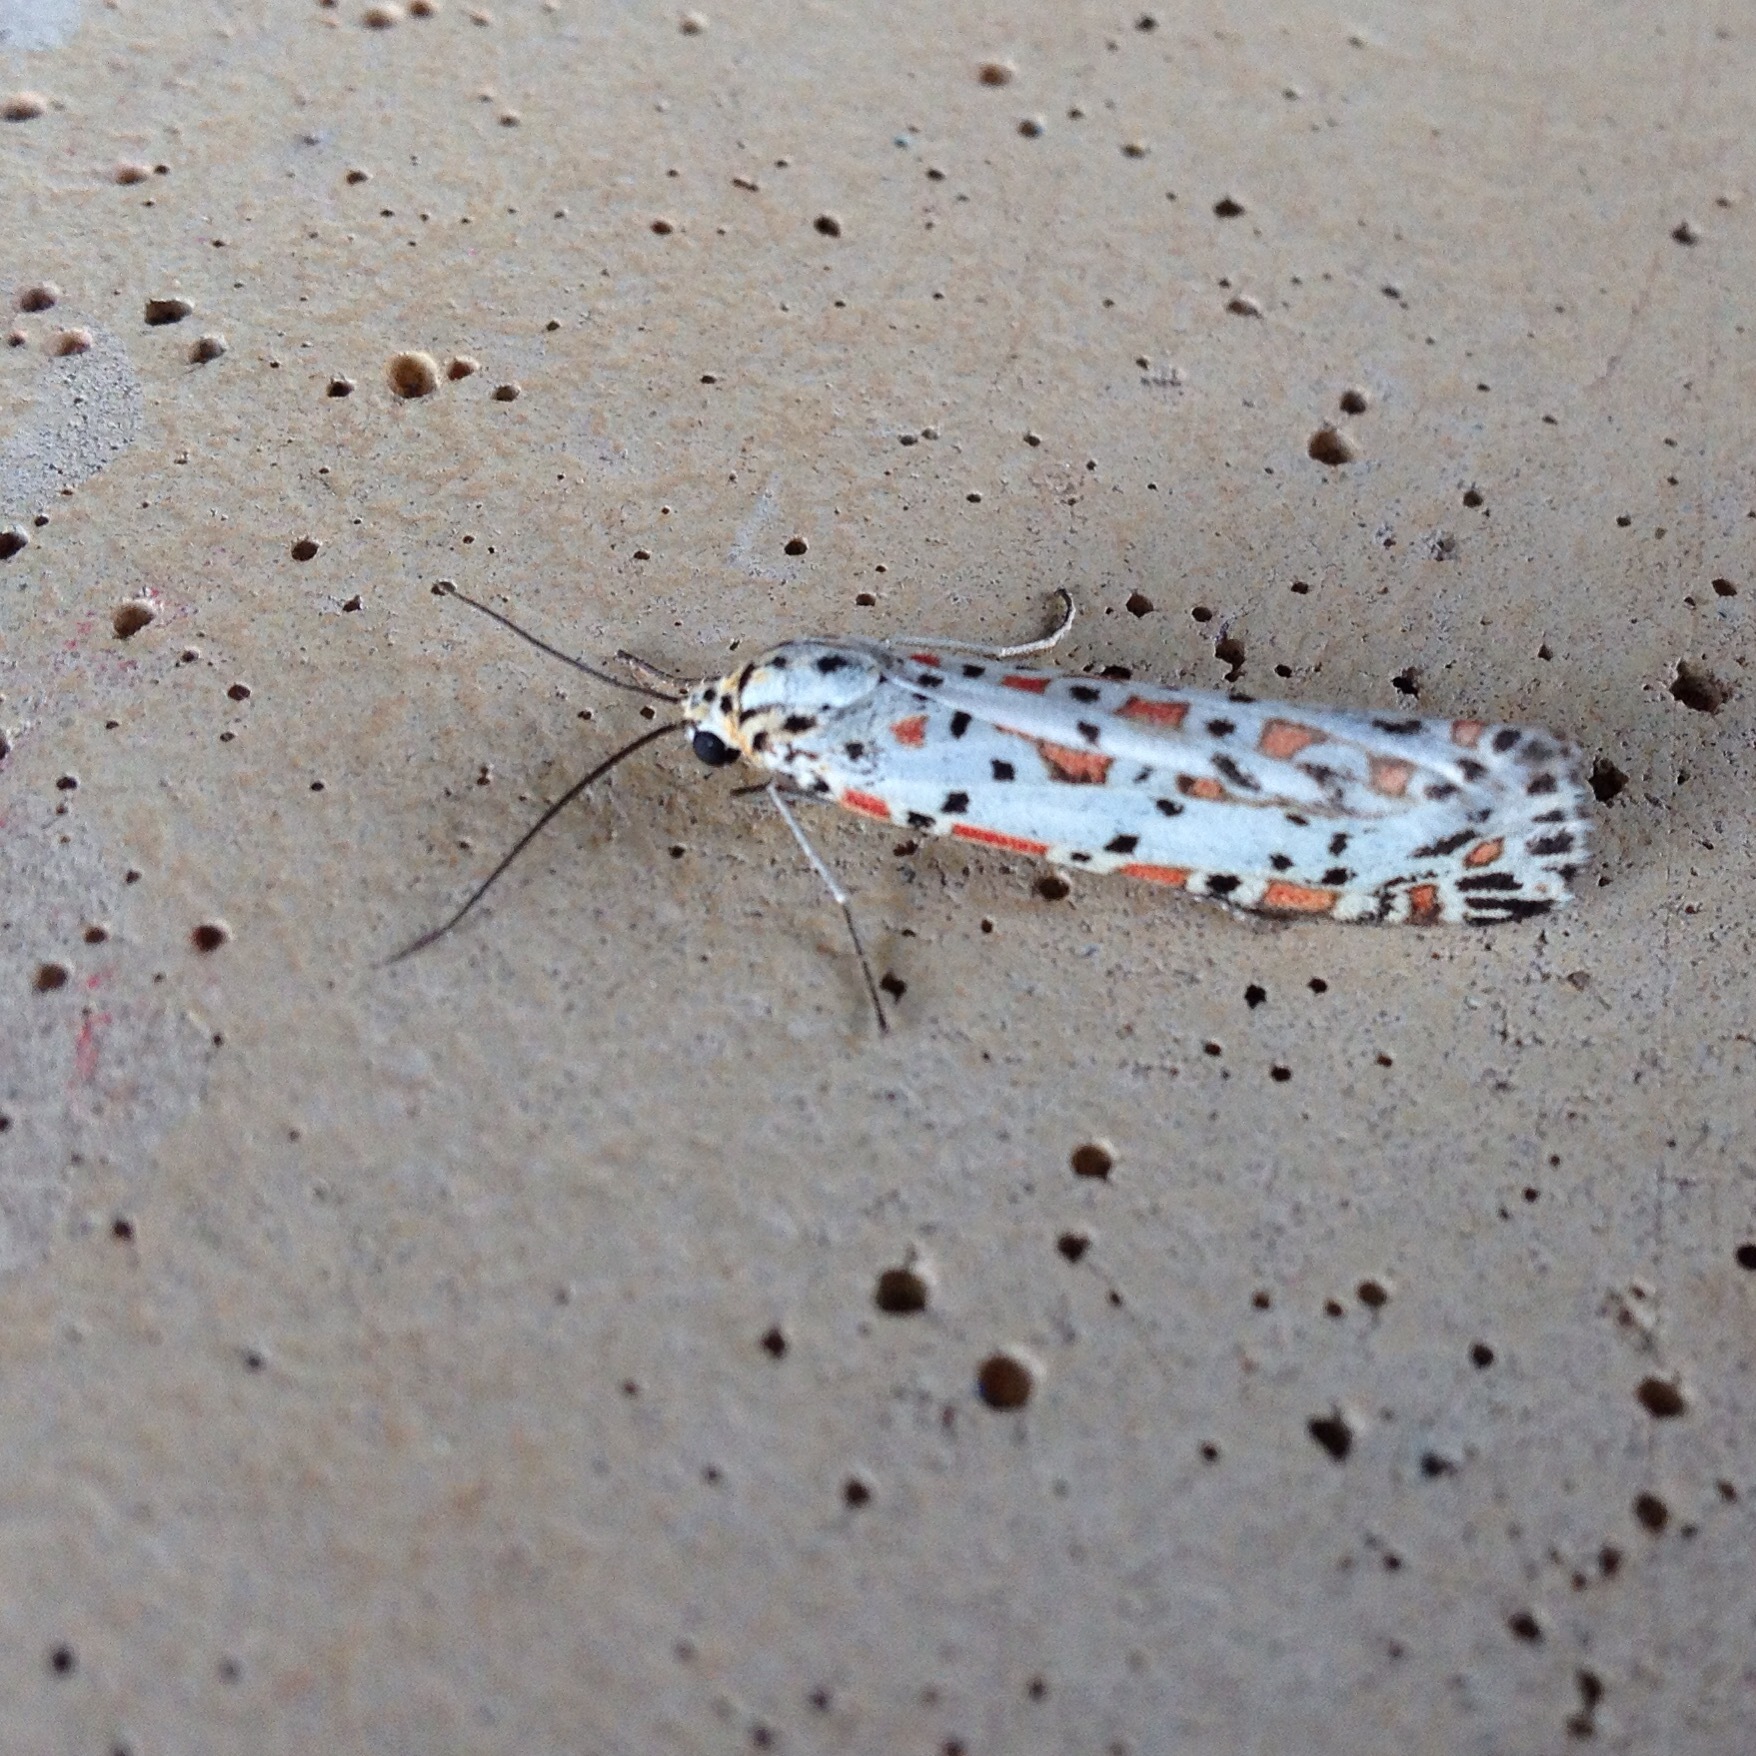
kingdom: Animalia
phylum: Arthropoda
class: Insecta
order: Lepidoptera
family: Erebidae
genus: Utetheisa
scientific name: Utetheisa pulchelloides
